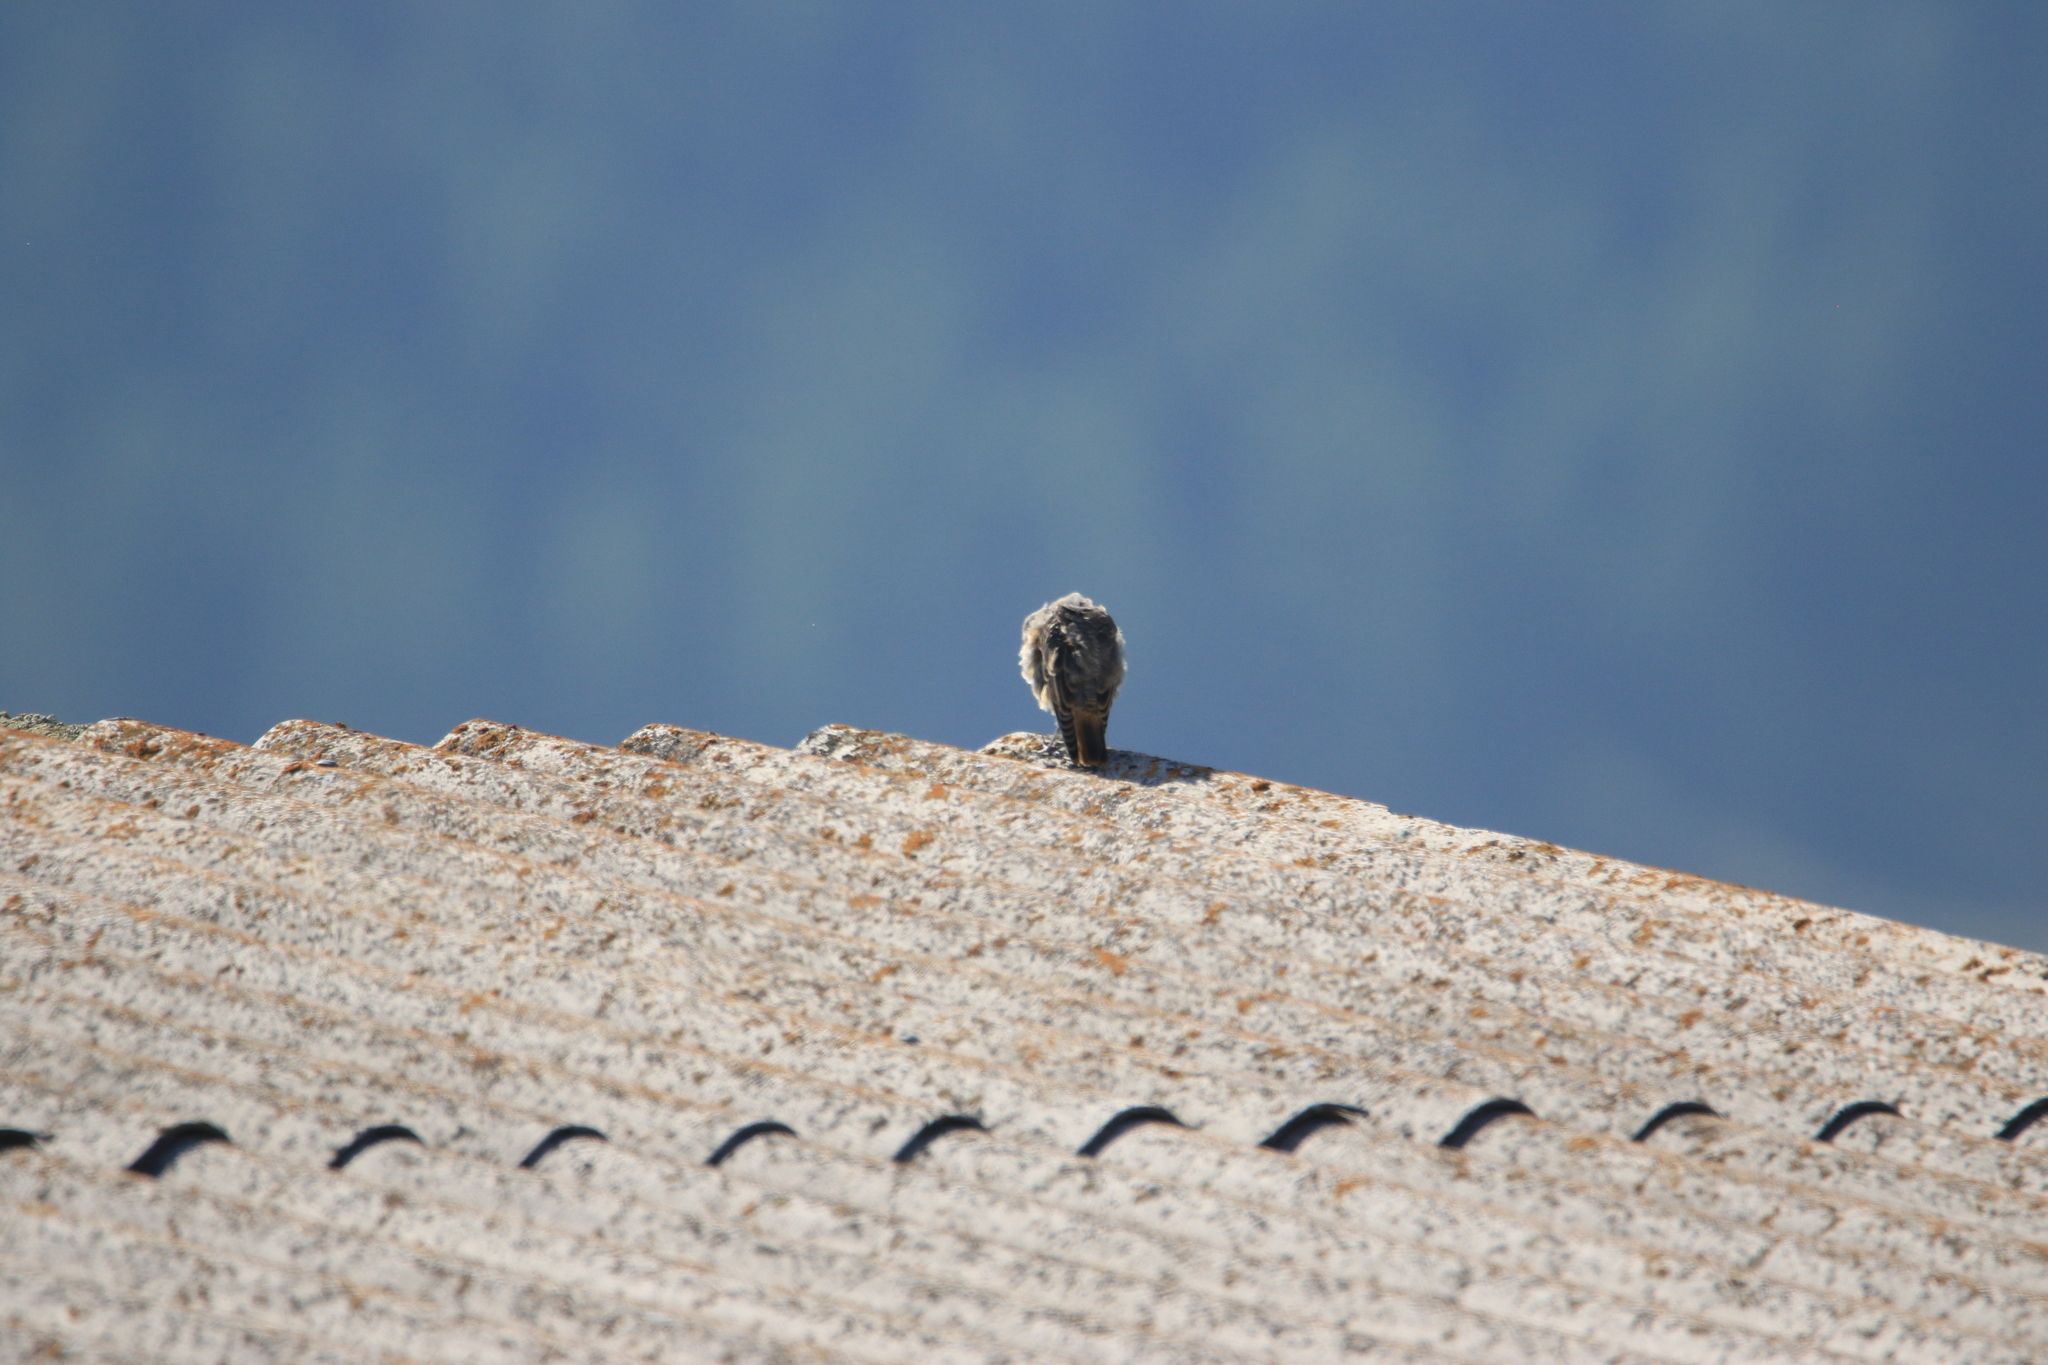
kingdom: Animalia
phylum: Chordata
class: Aves
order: Passeriformes
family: Muscicapidae
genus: Monticola
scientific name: Monticola saxatilis
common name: Rufous-tailed rock thrush
